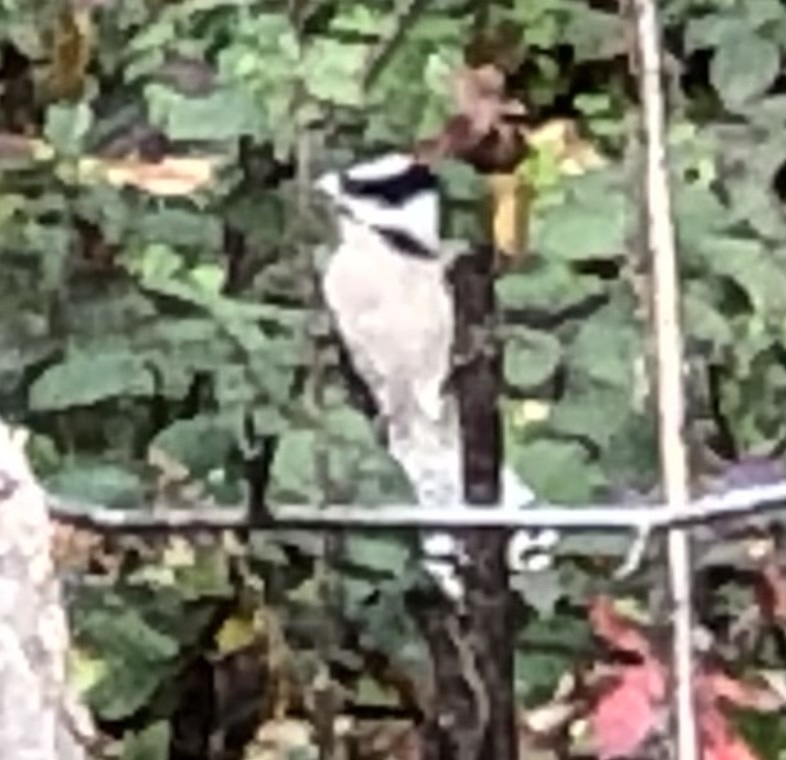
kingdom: Animalia
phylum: Chordata
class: Aves
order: Piciformes
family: Picidae
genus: Dryobates
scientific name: Dryobates pubescens
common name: Downy woodpecker
